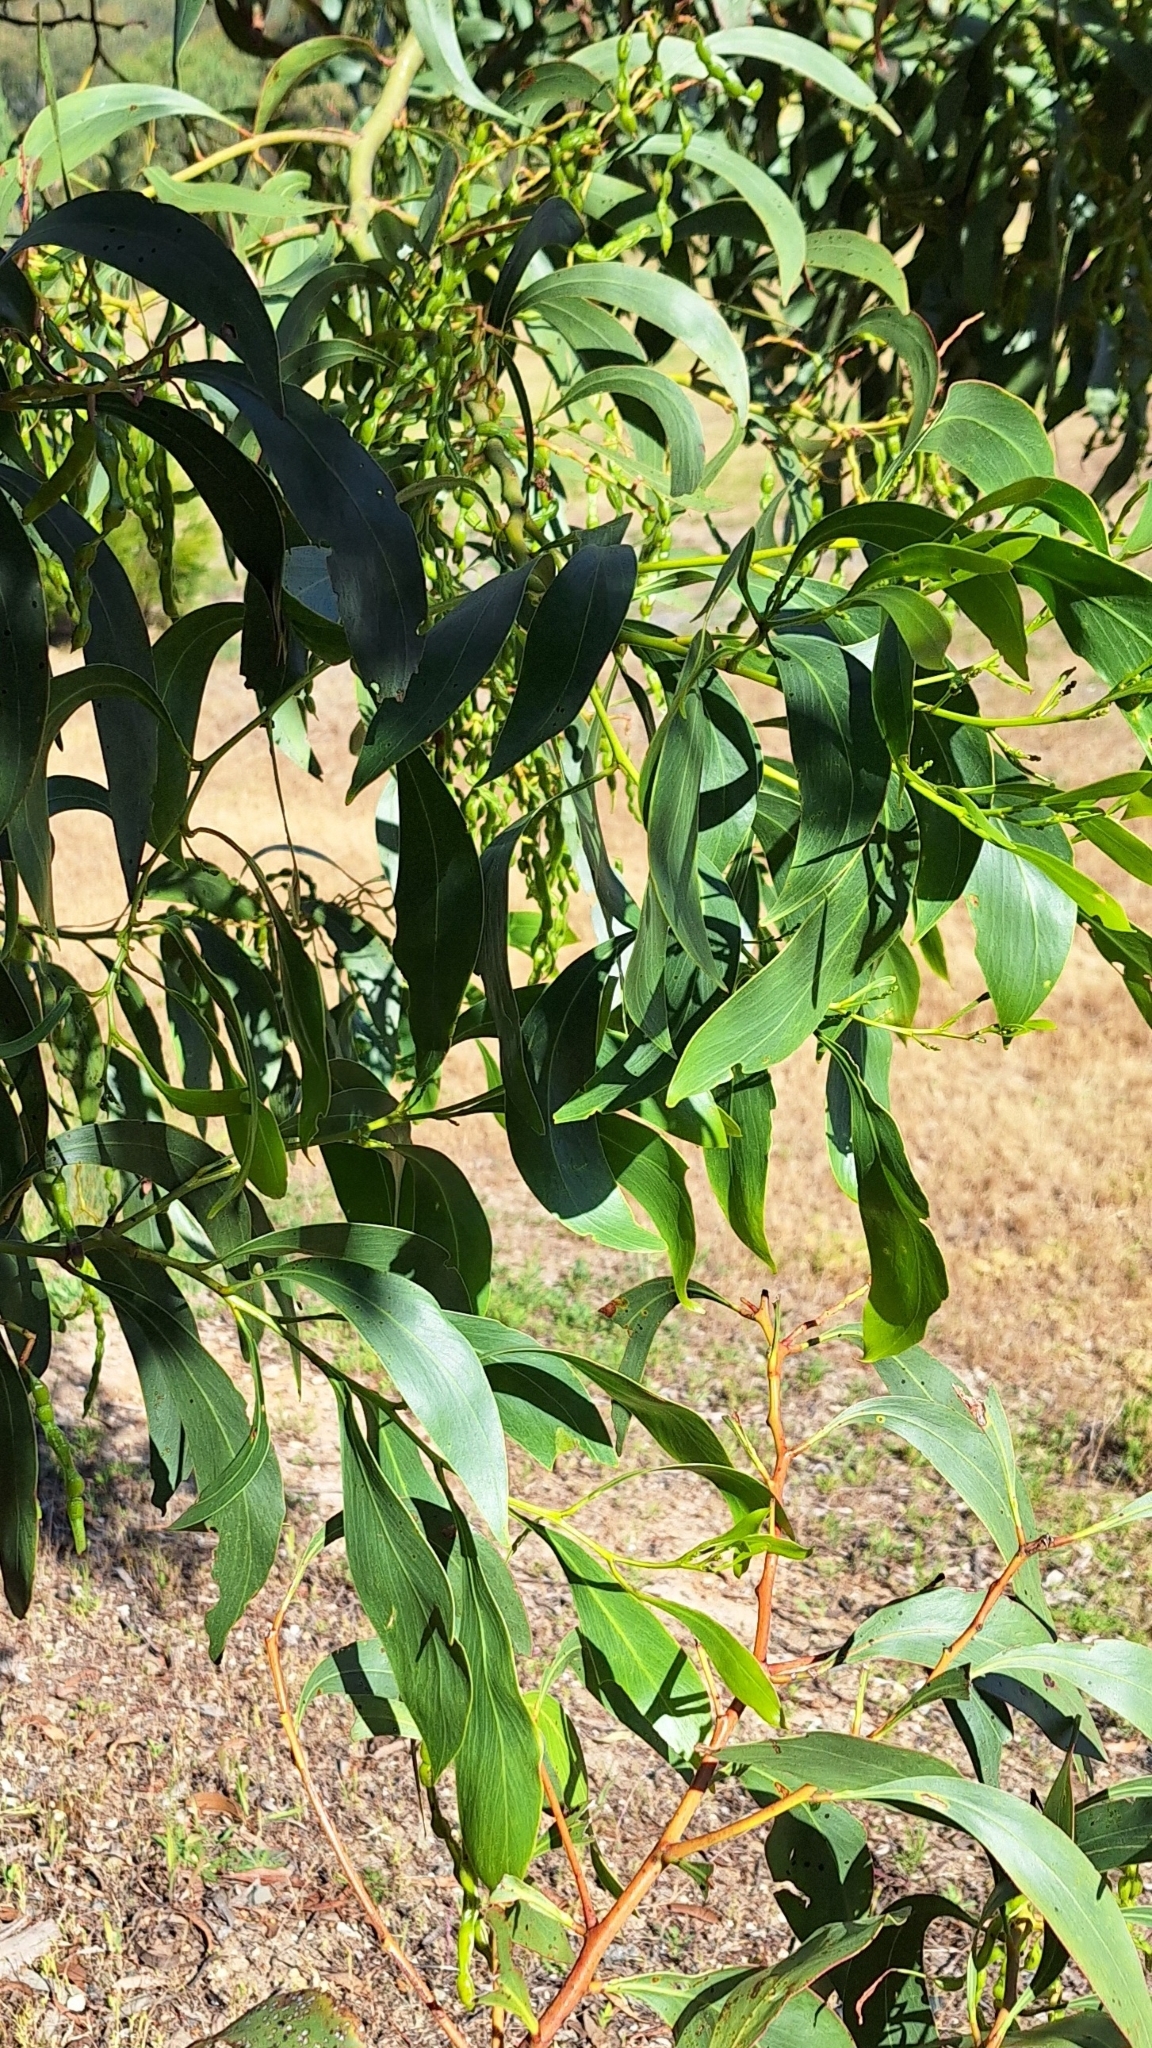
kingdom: Plantae
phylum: Tracheophyta
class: Magnoliopsida
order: Fabales
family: Fabaceae
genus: Acacia
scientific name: Acacia pycnantha
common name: Golden wattle
